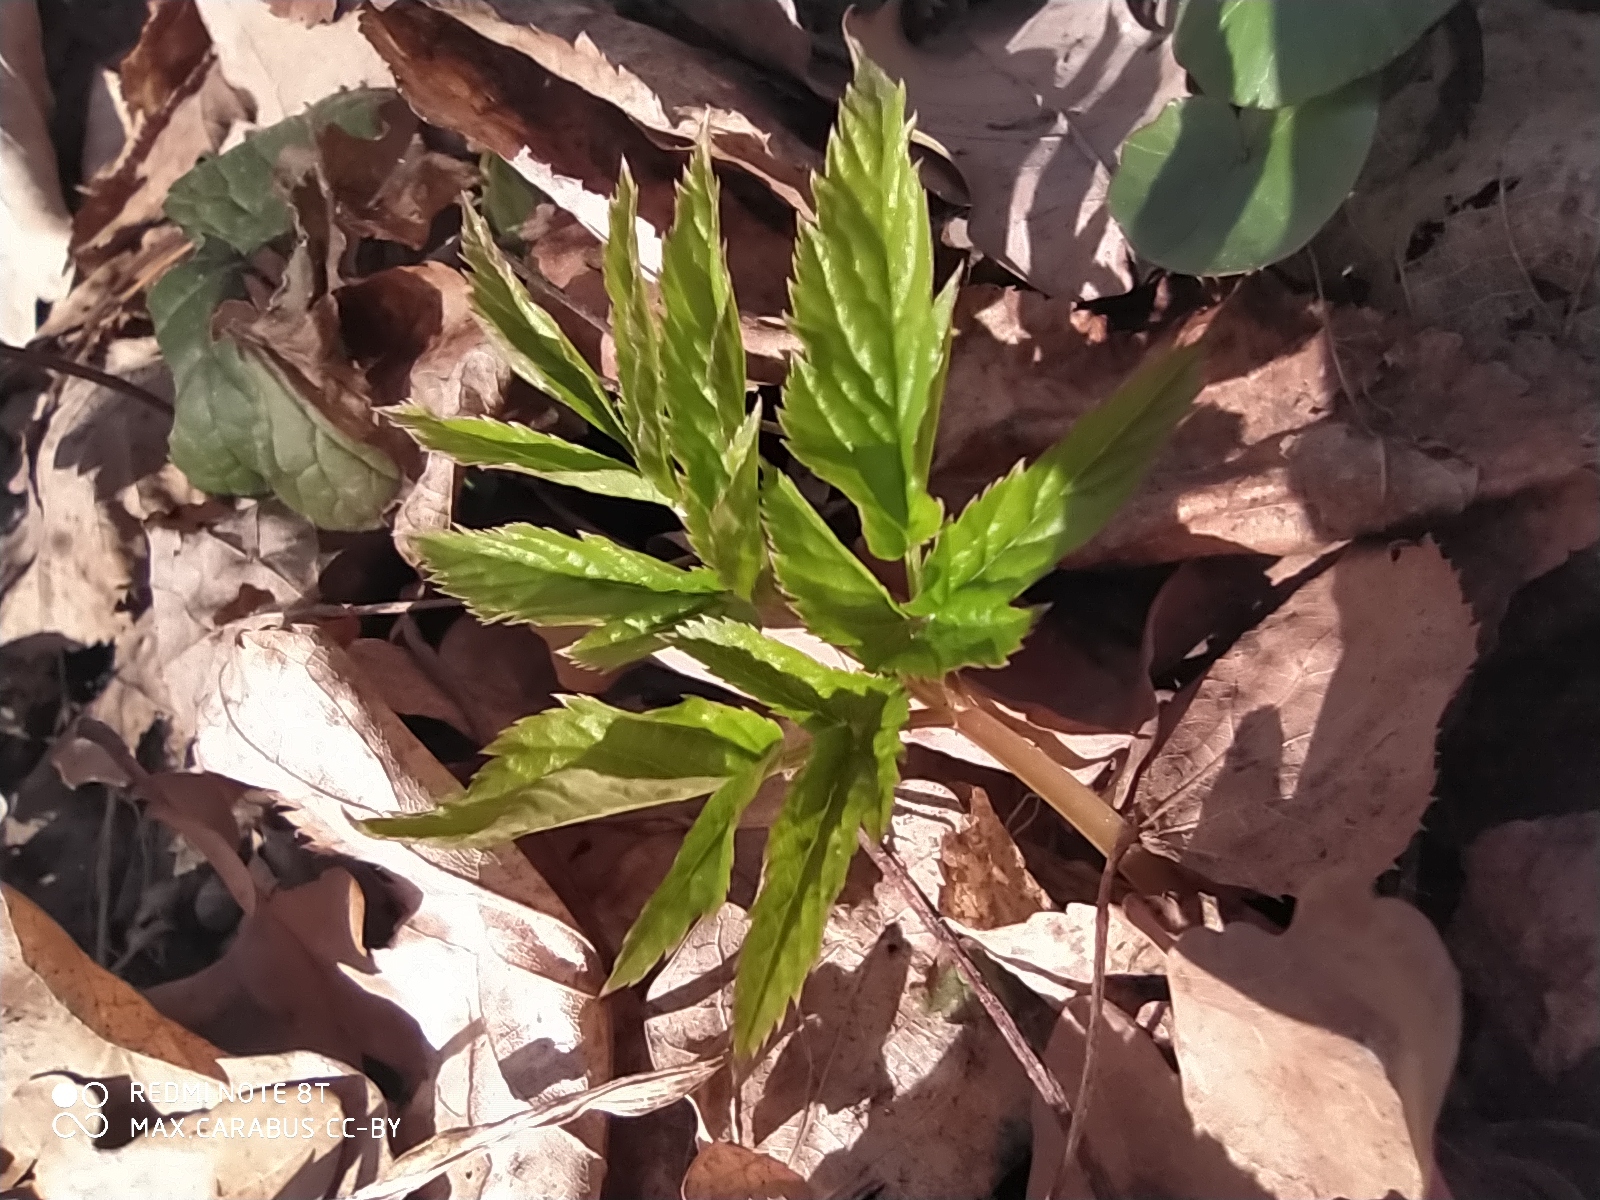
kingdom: Plantae
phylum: Tracheophyta
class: Magnoliopsida
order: Apiales
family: Apiaceae
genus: Aegopodium
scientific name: Aegopodium podagraria
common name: Ground-elder
